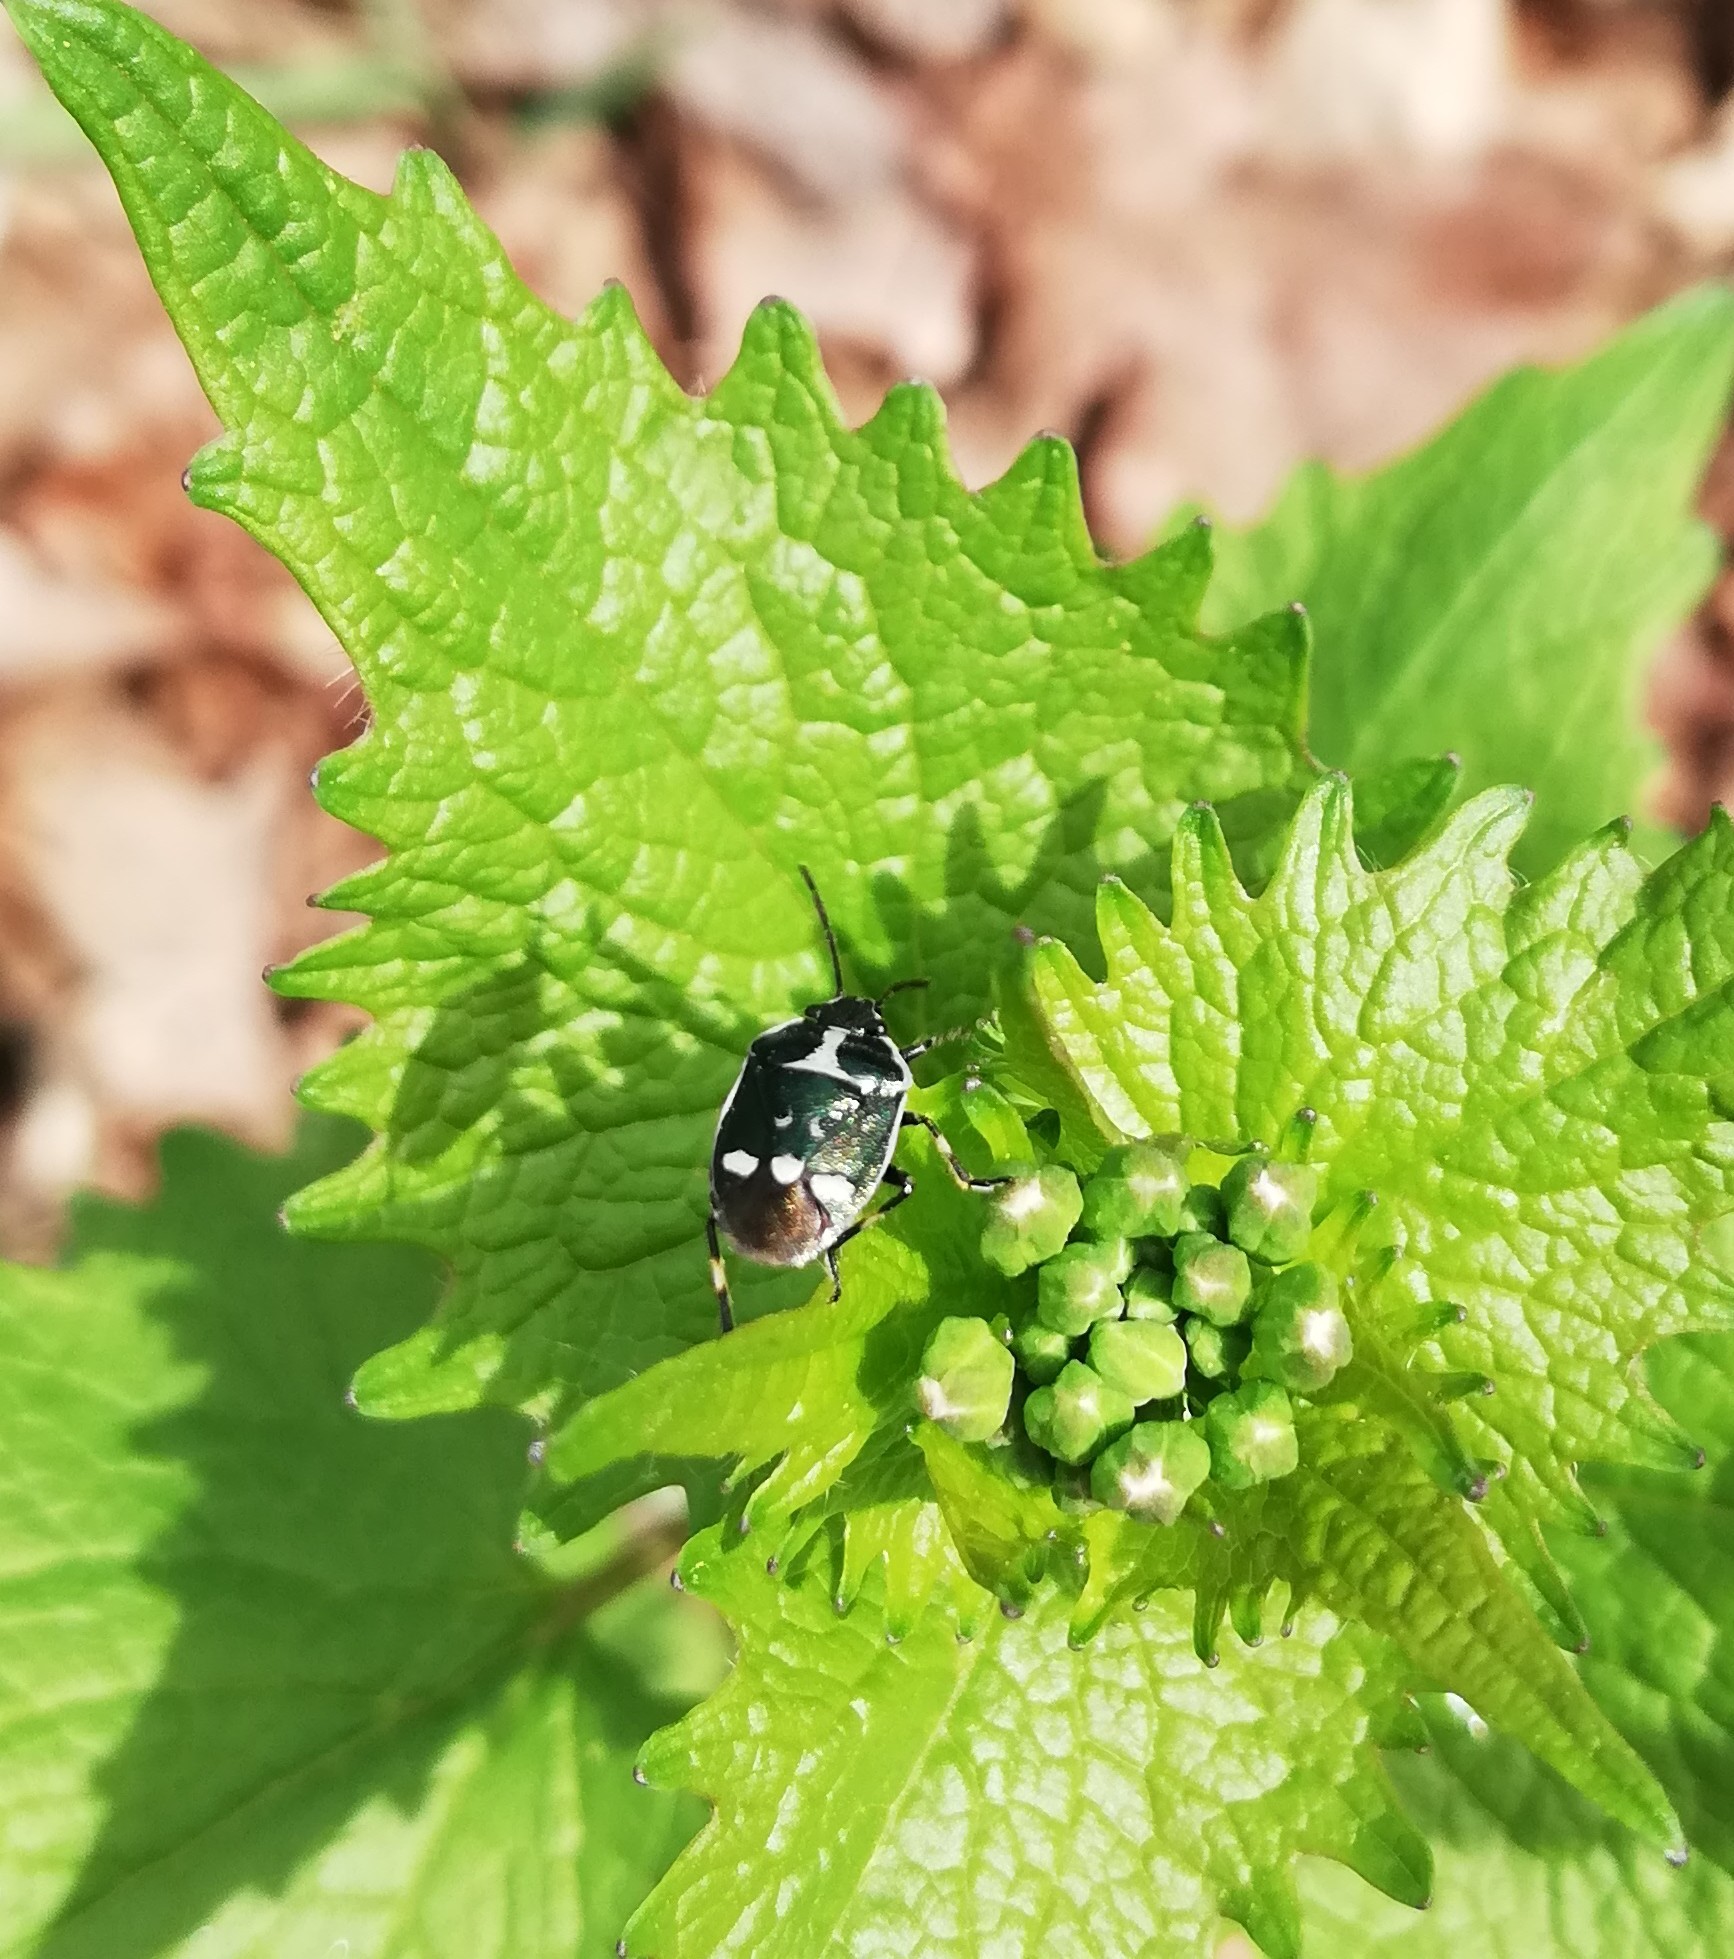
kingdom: Animalia
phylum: Arthropoda
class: Insecta
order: Hemiptera
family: Pentatomidae
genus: Eurydema
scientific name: Eurydema oleracea
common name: Cabbage bug
